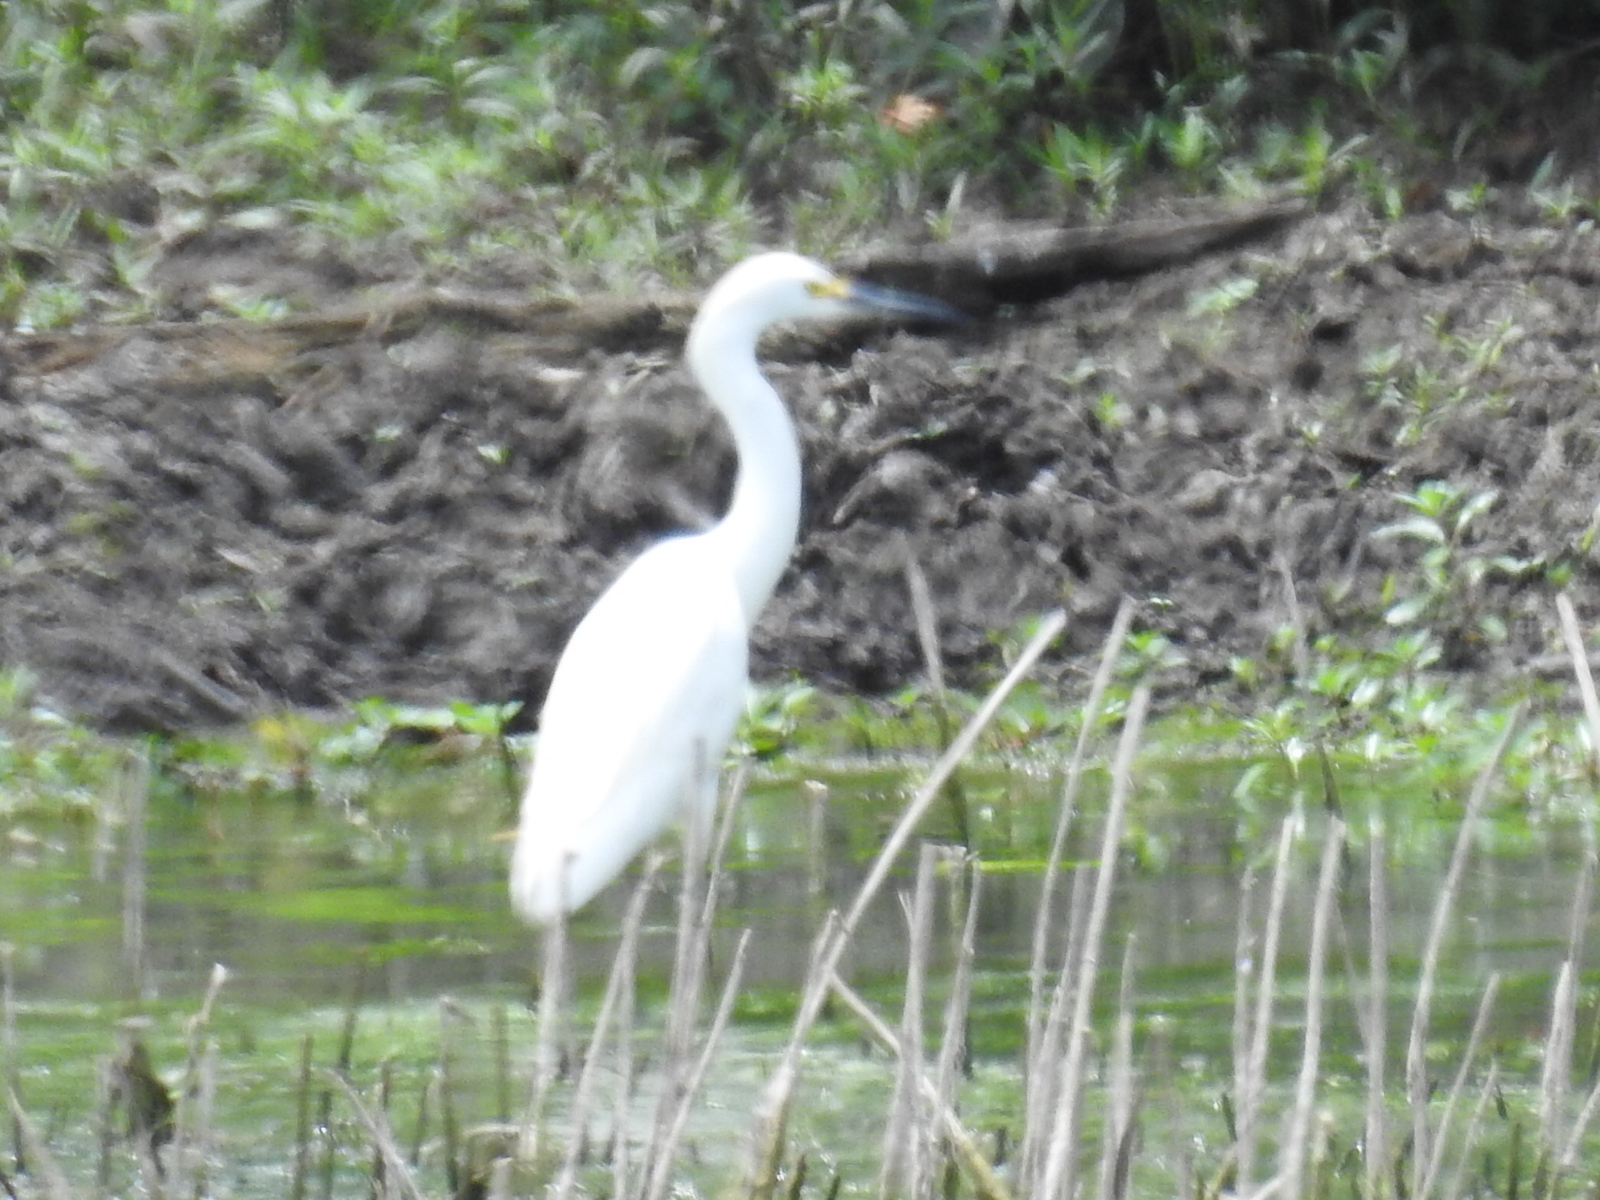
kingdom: Animalia
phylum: Chordata
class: Aves
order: Pelecaniformes
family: Ardeidae
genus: Egretta
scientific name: Egretta thula
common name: Snowy egret
